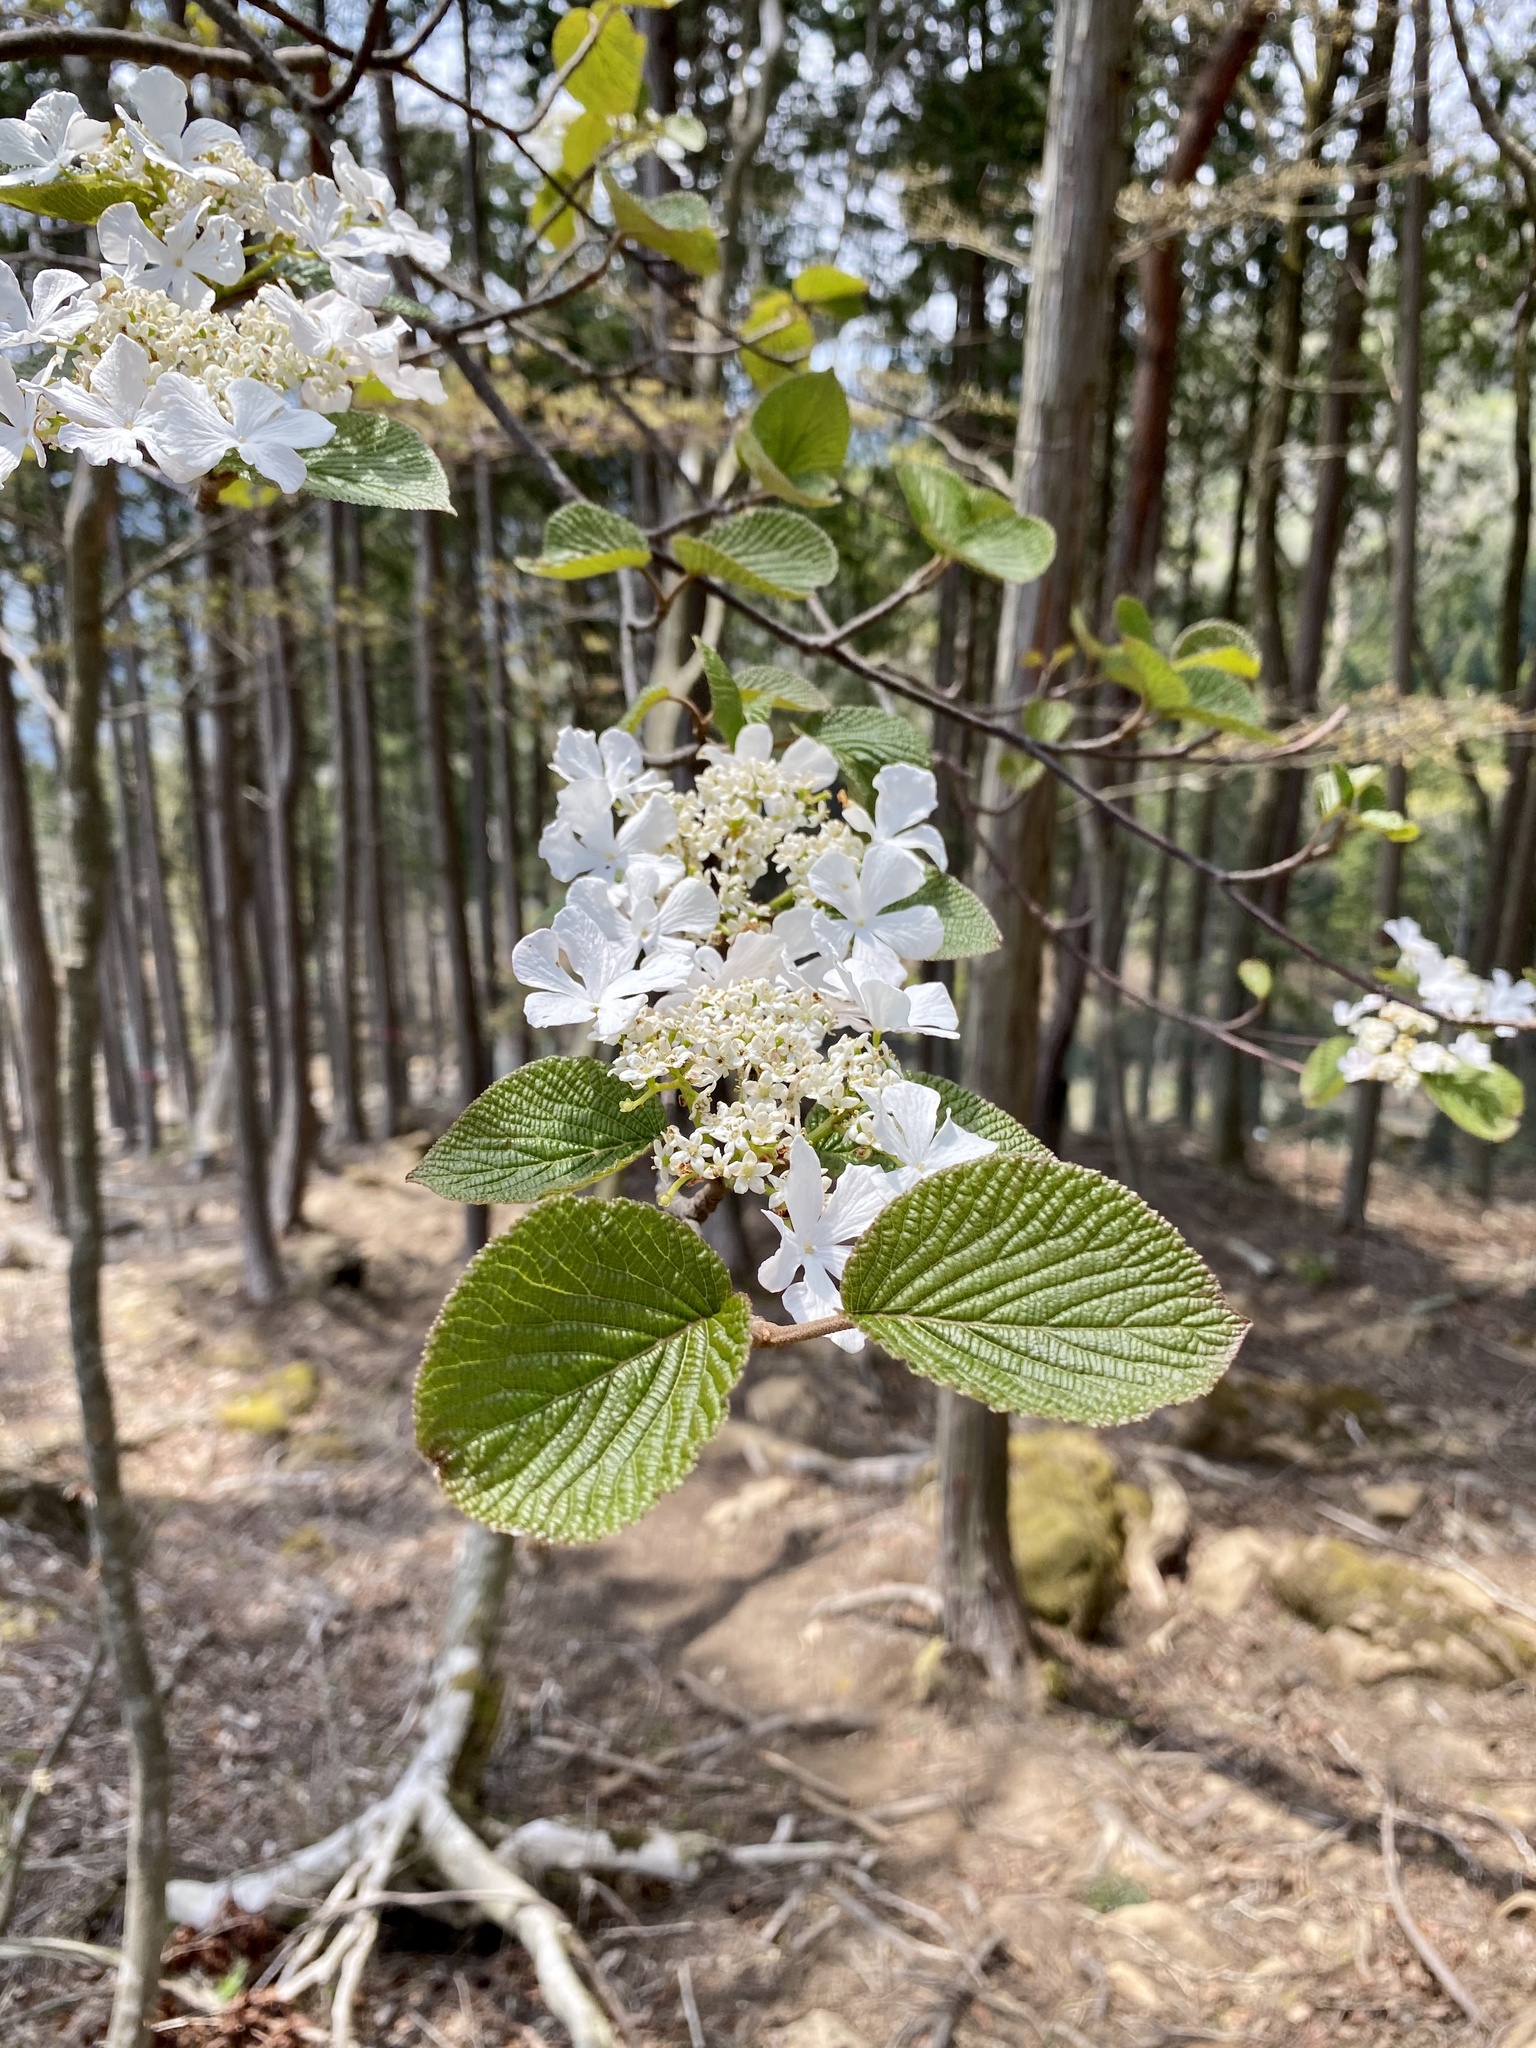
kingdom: Plantae
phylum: Tracheophyta
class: Magnoliopsida
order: Dipsacales
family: Viburnaceae
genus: Viburnum
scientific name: Viburnum furcatum
